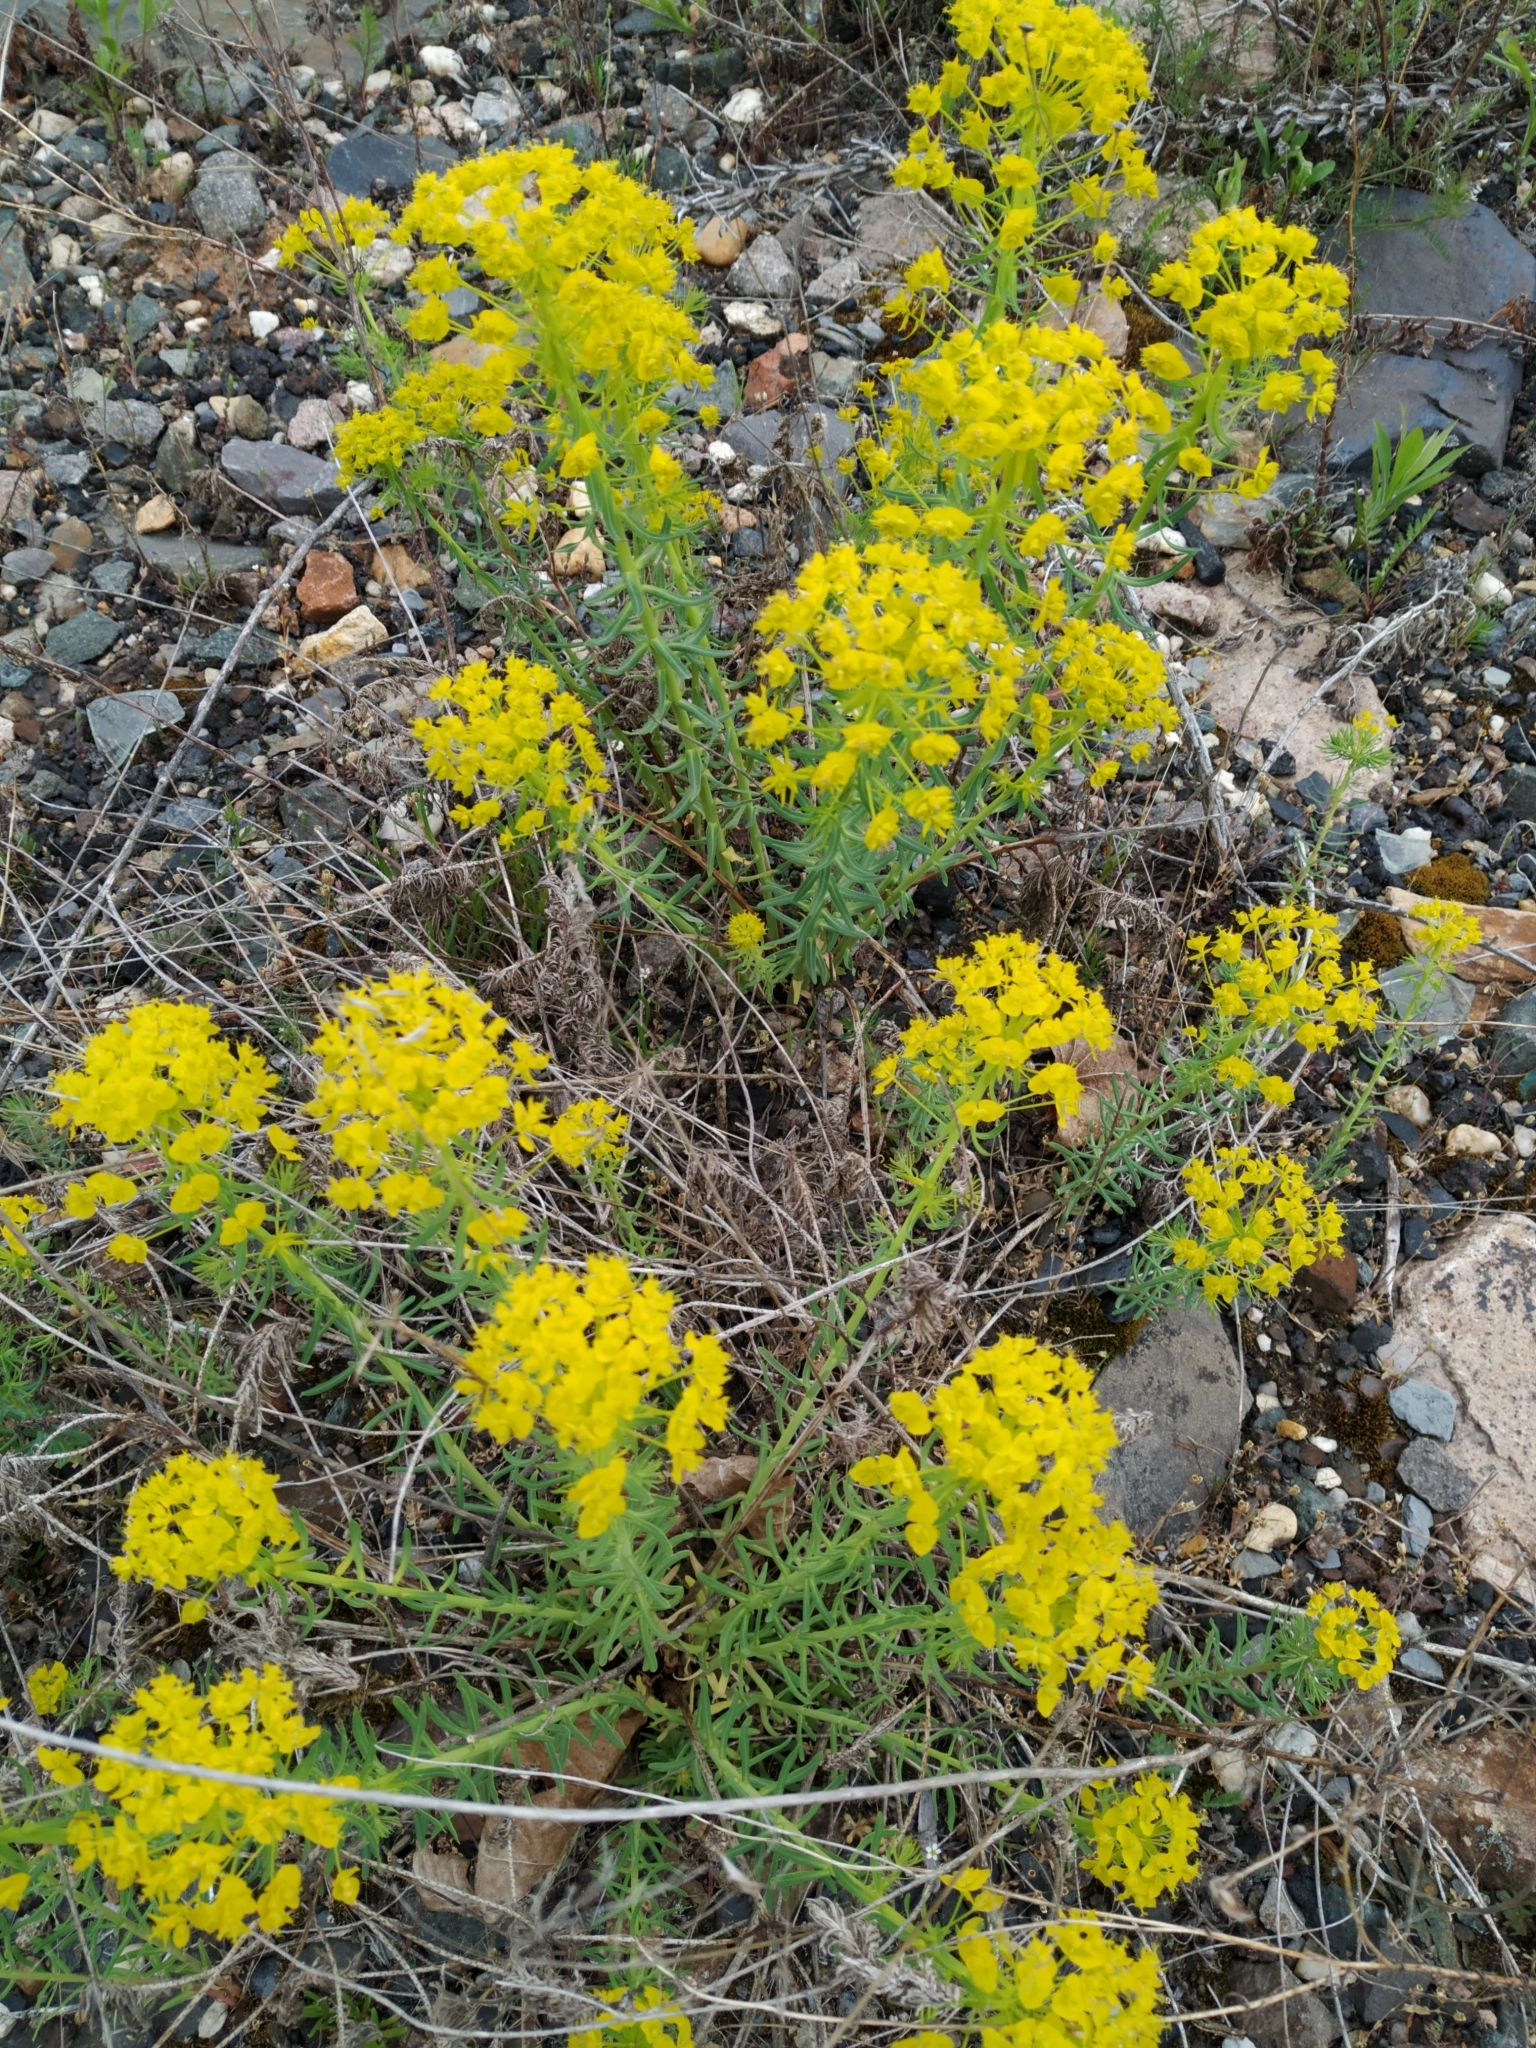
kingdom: Plantae
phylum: Tracheophyta
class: Magnoliopsida
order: Malpighiales
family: Euphorbiaceae
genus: Euphorbia
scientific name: Euphorbia cyparissias
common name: Cypress spurge
